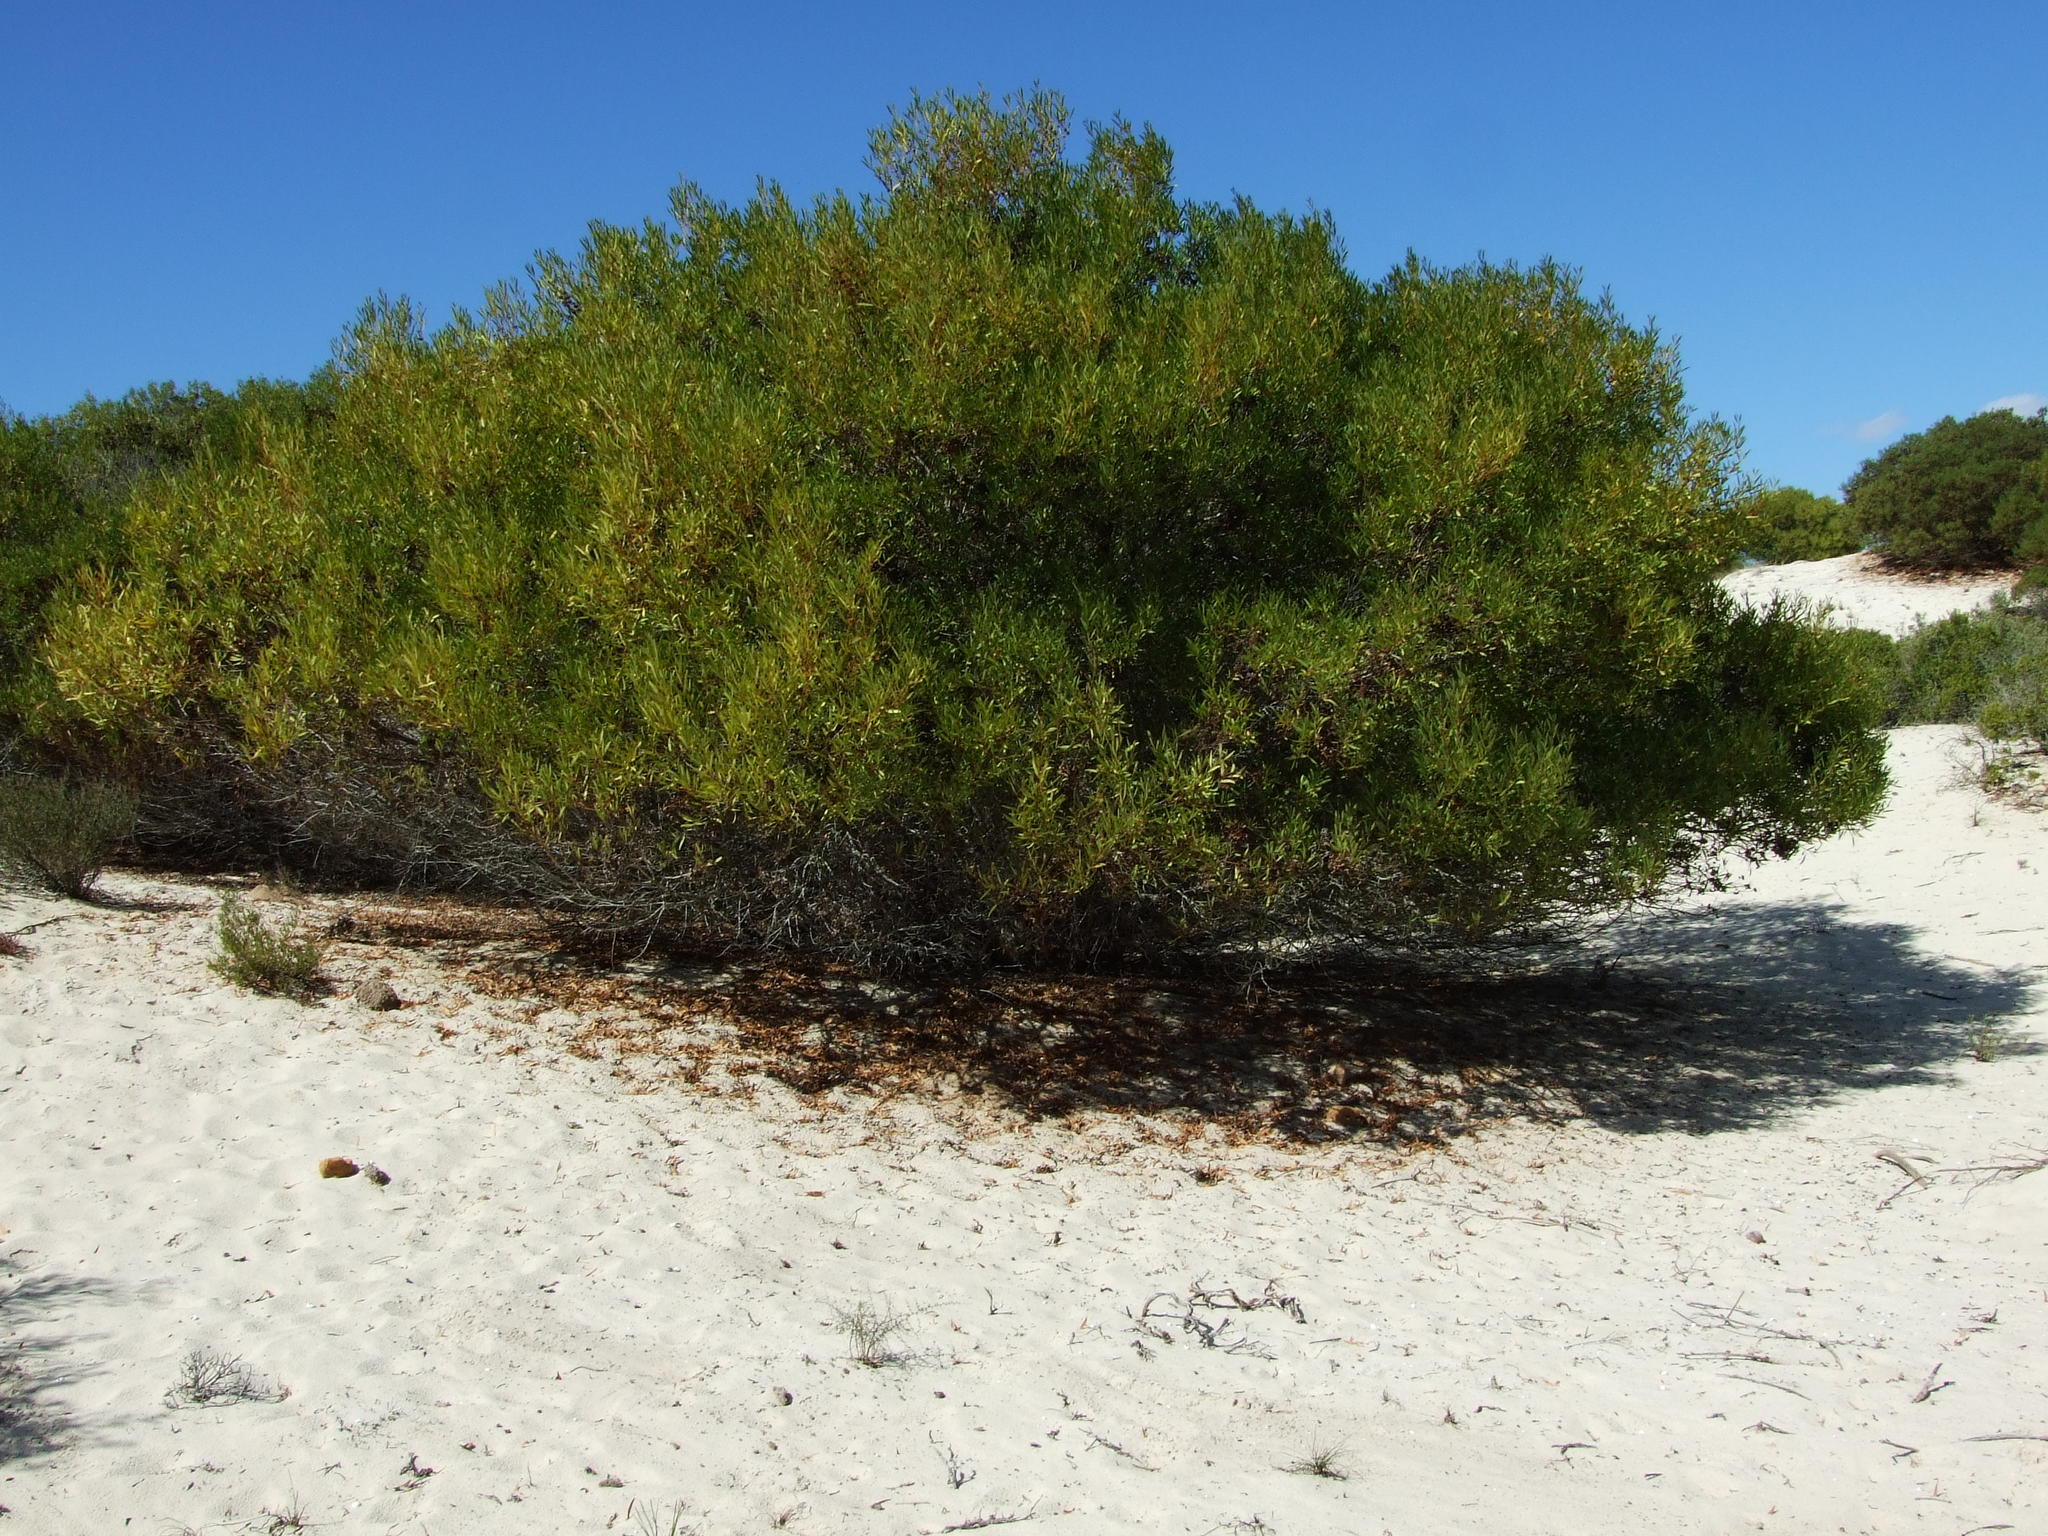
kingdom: Plantae
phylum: Tracheophyta
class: Magnoliopsida
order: Fabales
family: Fabaceae
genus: Acacia
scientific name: Acacia cyclops
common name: Coastal wattle
